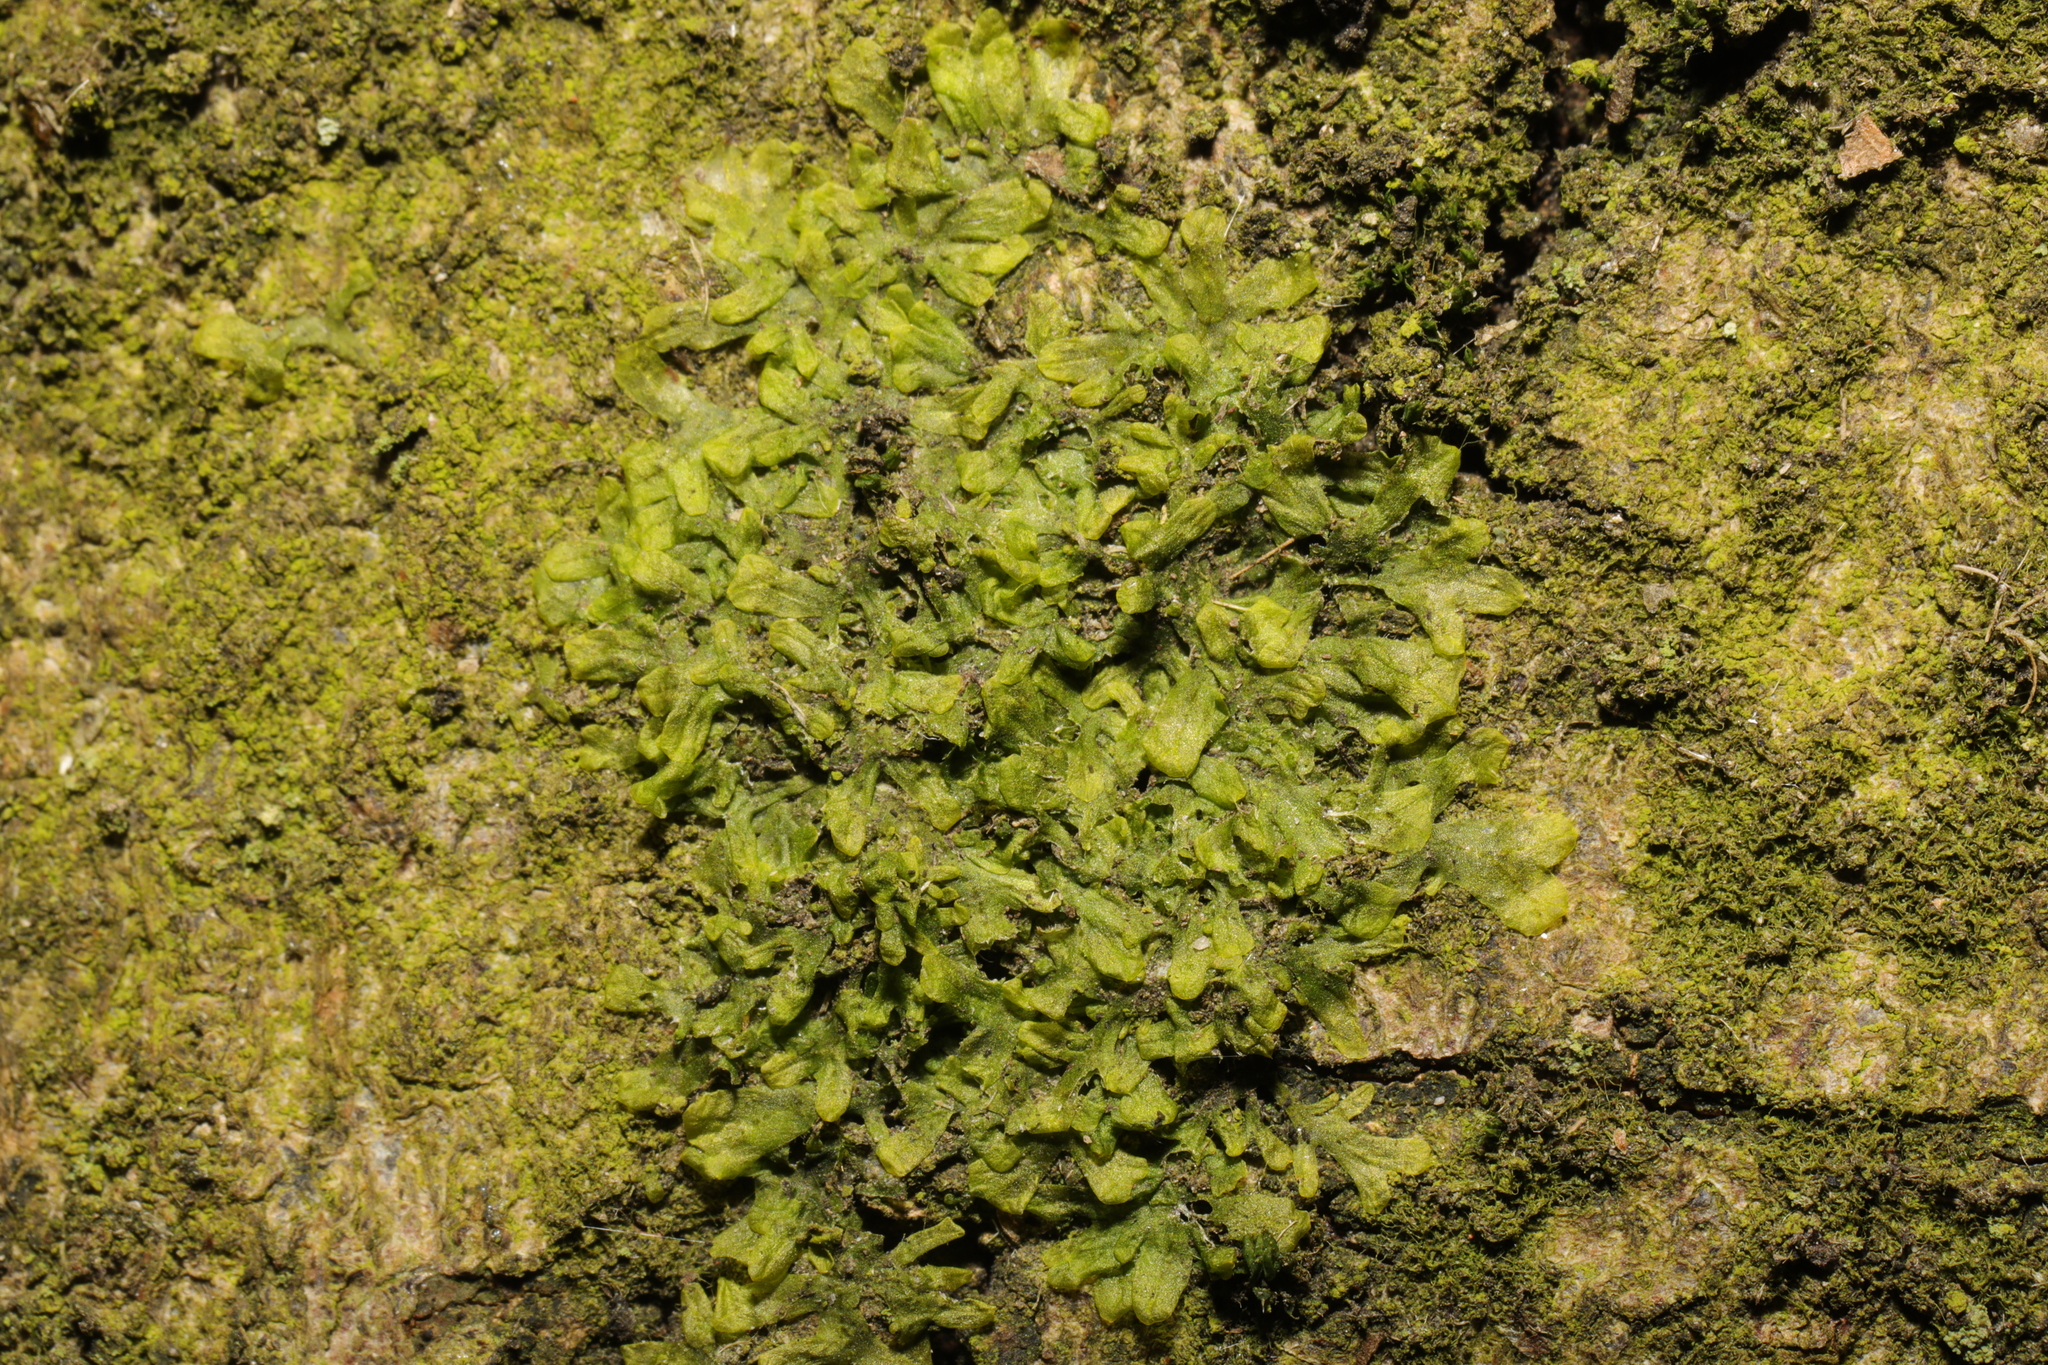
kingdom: Plantae
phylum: Marchantiophyta
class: Jungermanniopsida
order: Metzgeriales
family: Metzgeriaceae
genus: Metzgeria
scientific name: Metzgeria furcata
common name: Forked veilwort
